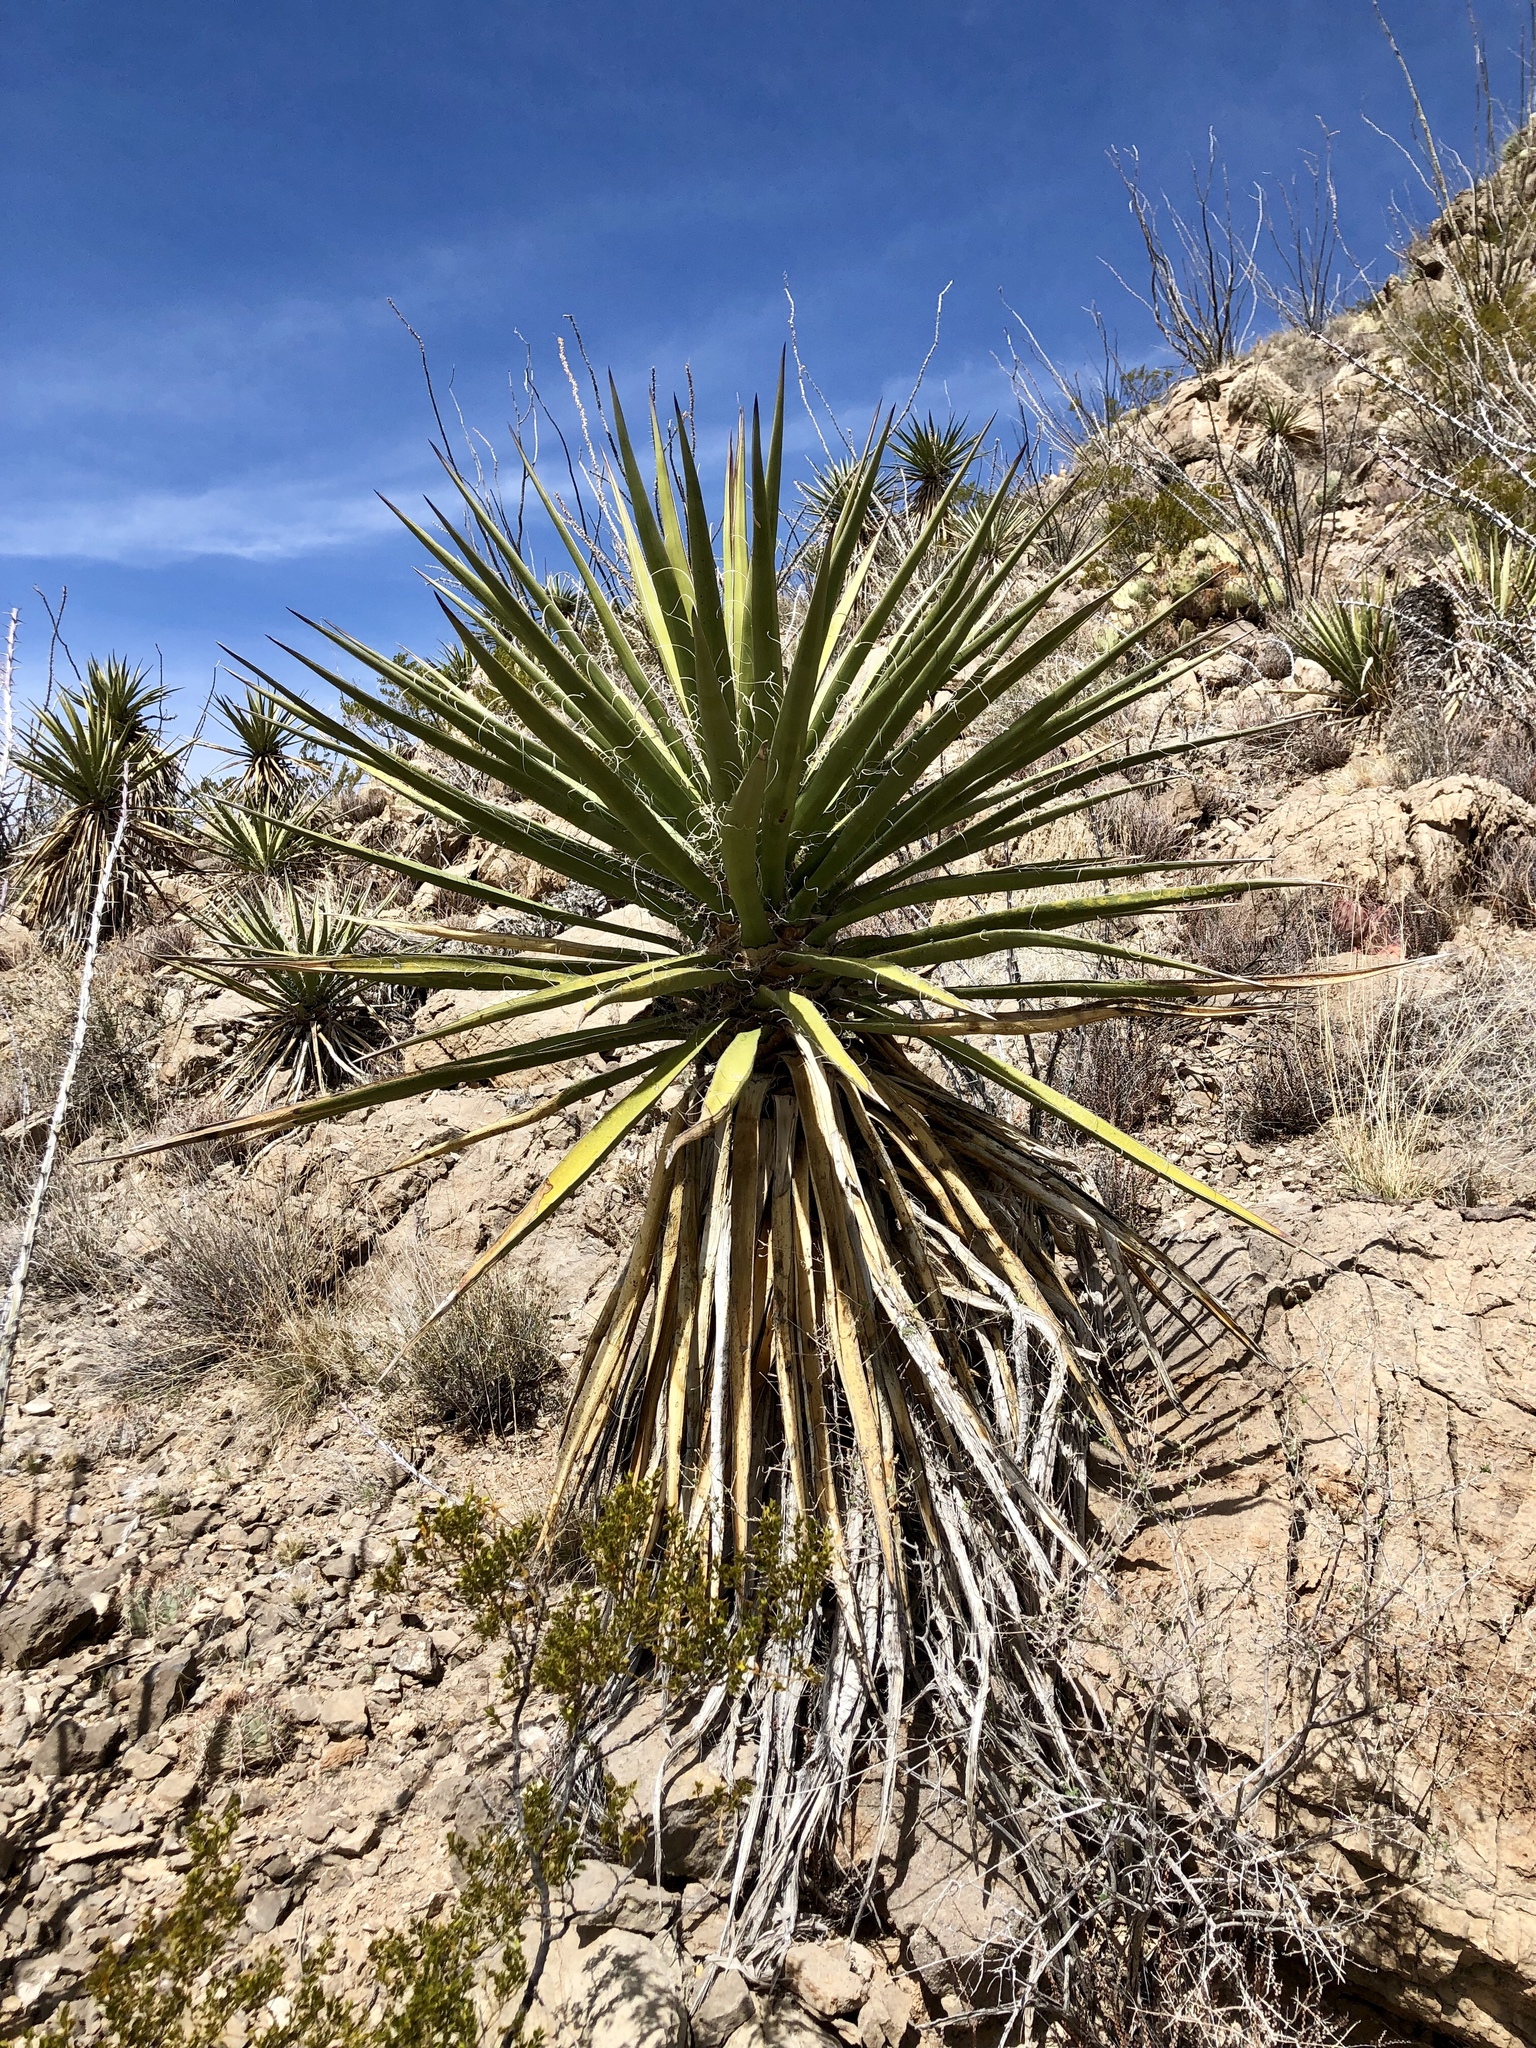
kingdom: Plantae
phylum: Tracheophyta
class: Liliopsida
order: Asparagales
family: Asparagaceae
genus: Yucca
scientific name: Yucca treculiana
